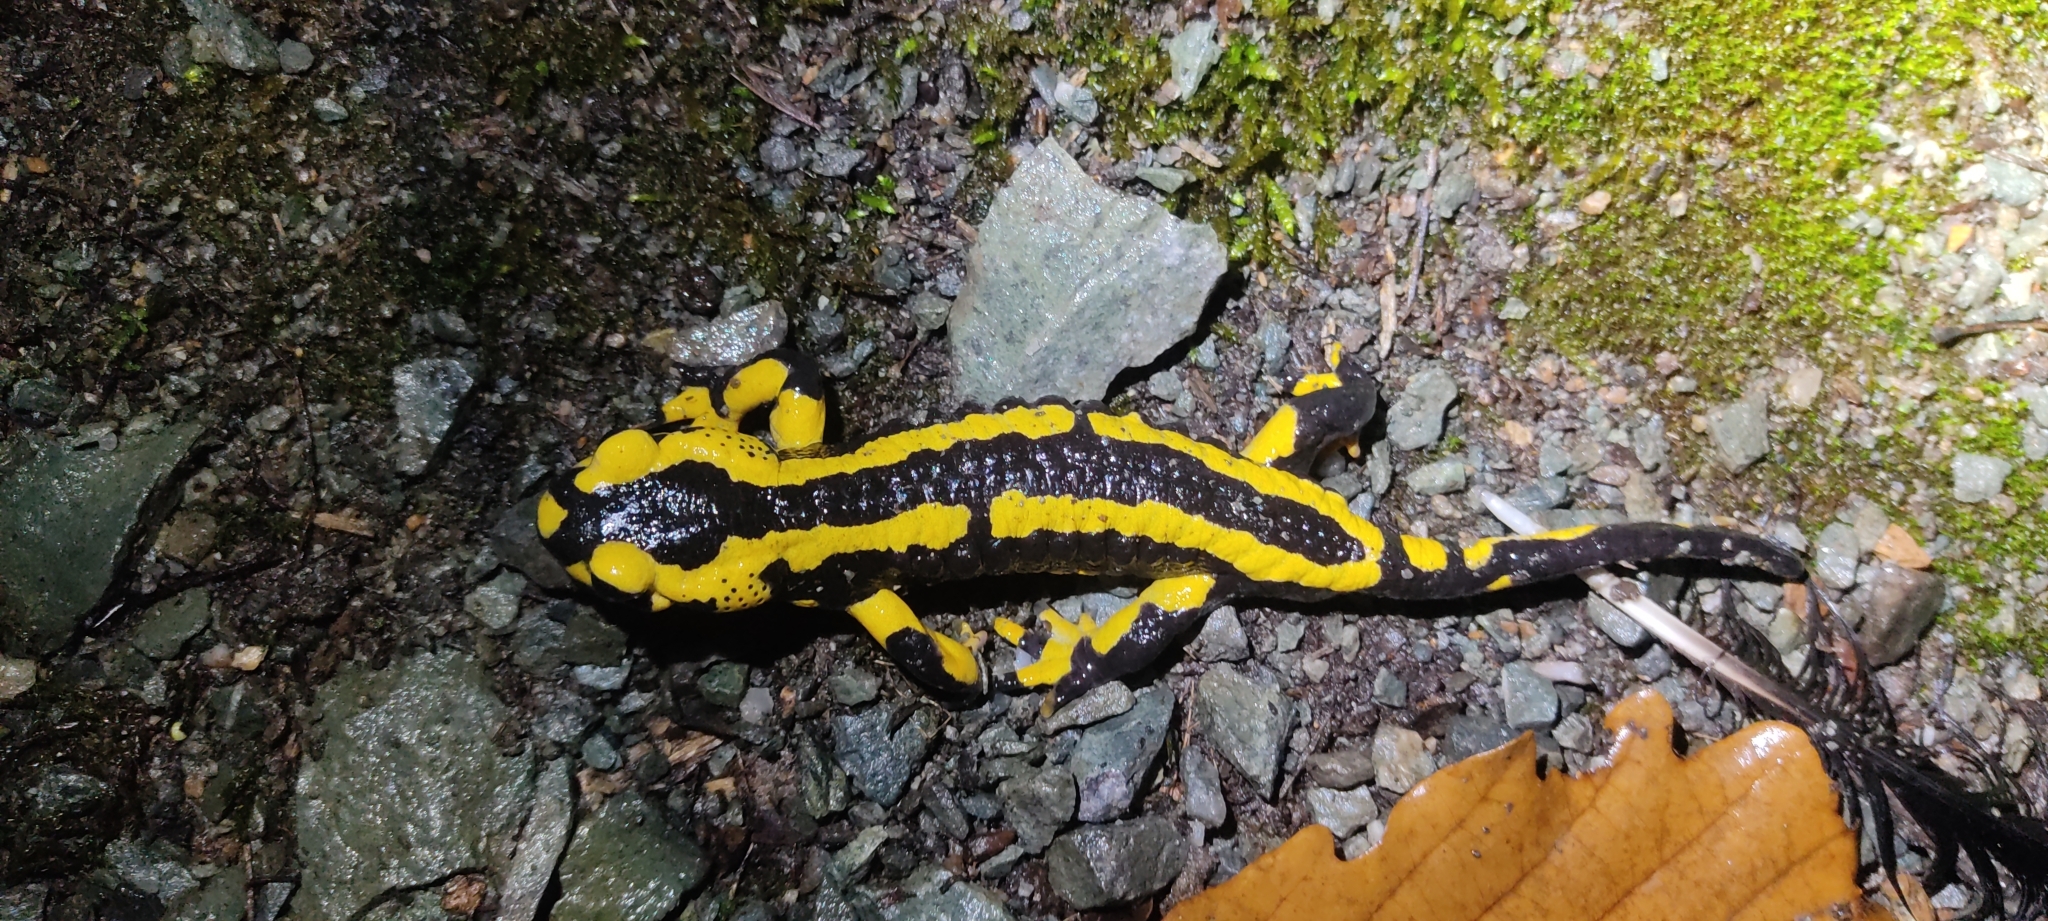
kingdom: Animalia
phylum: Chordata
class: Amphibia
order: Caudata
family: Salamandridae
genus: Salamandra
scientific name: Salamandra salamandra
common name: Fire salamander
